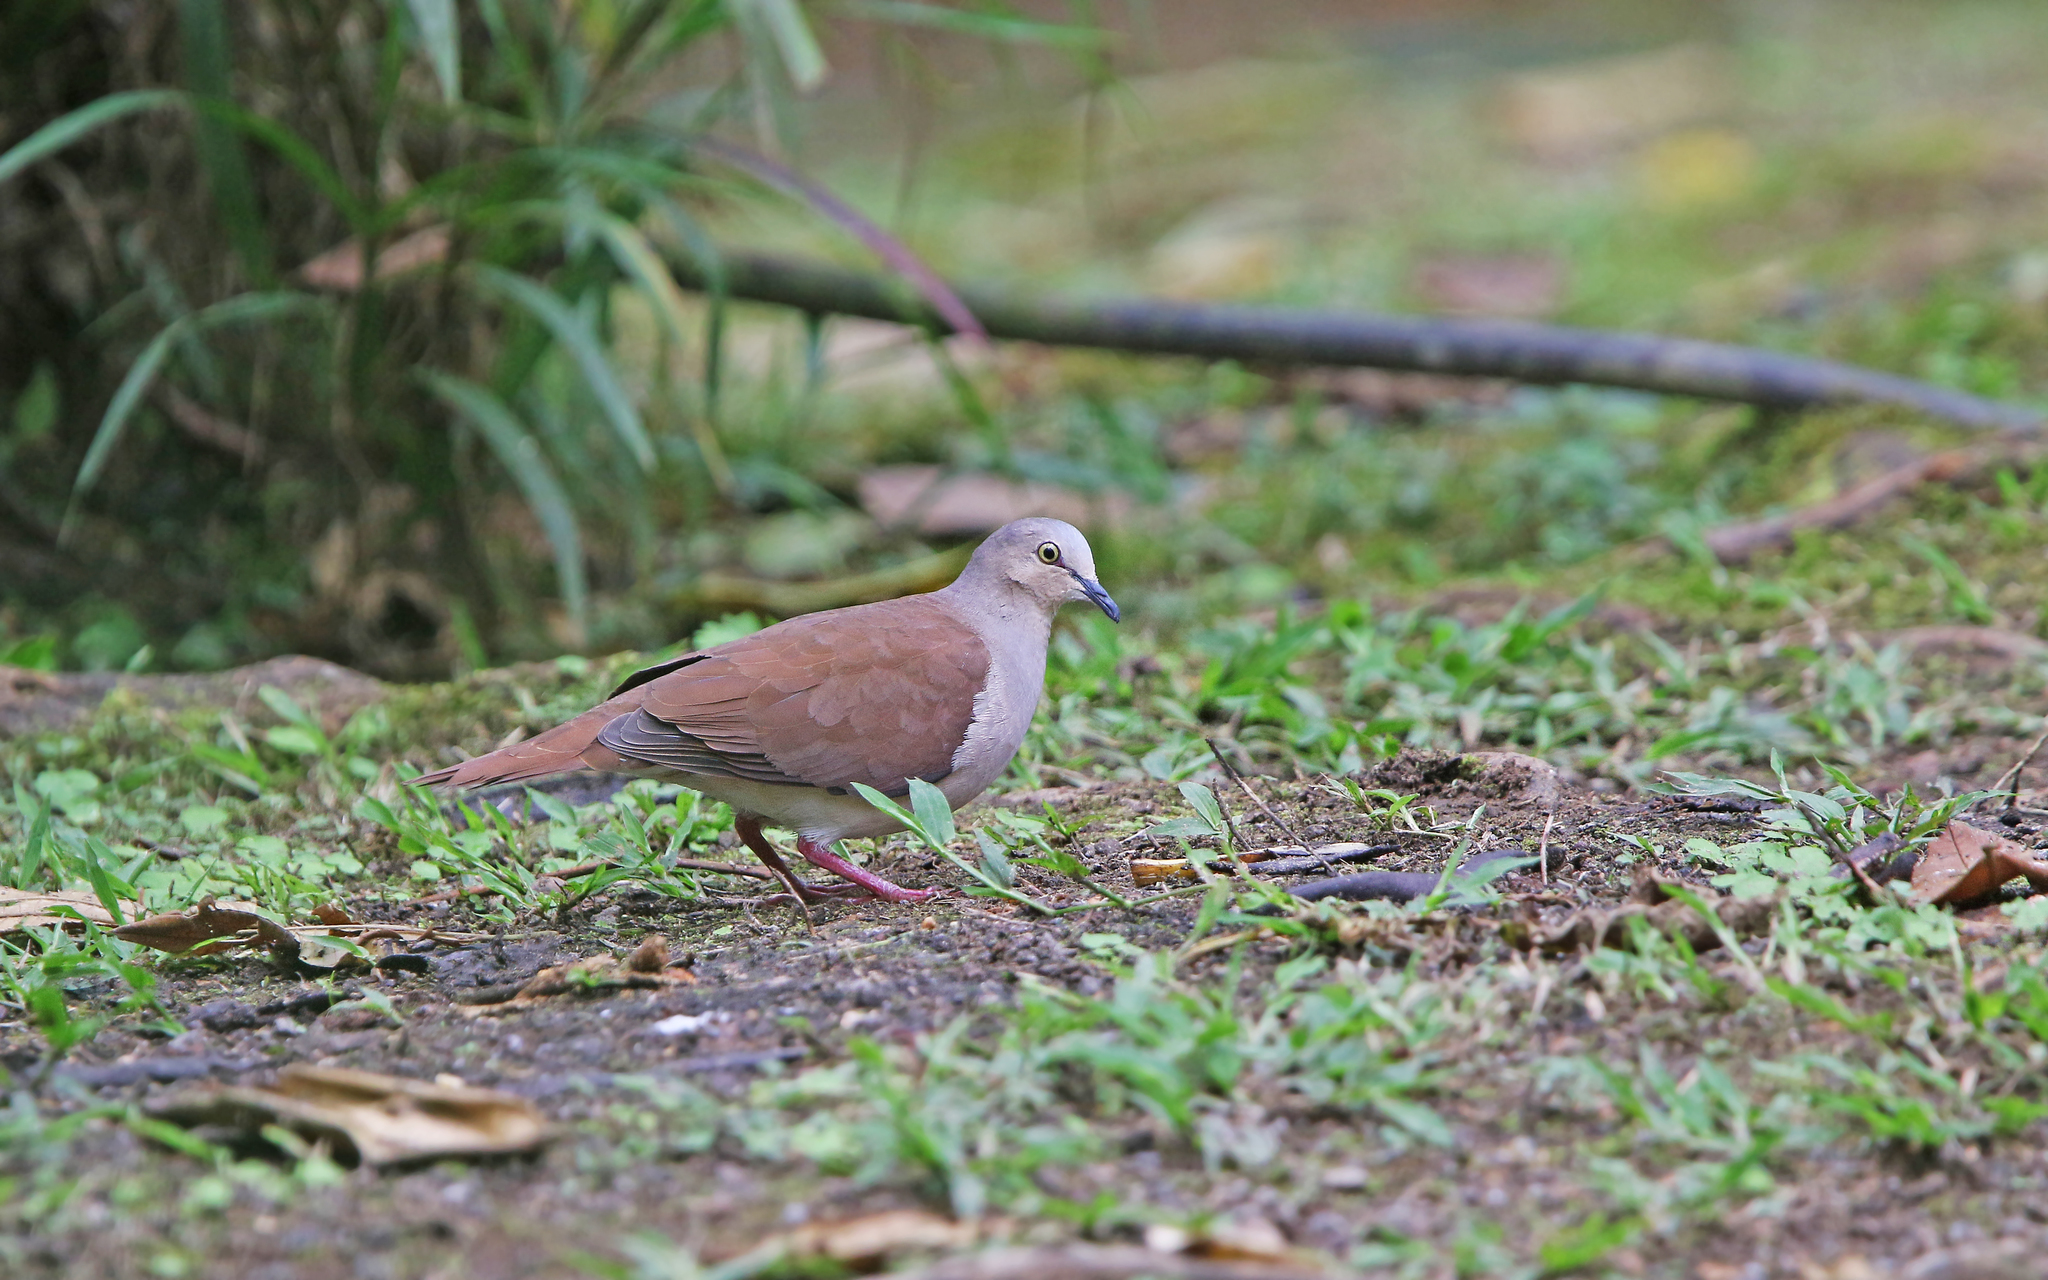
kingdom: Animalia
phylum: Chordata
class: Aves
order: Columbiformes
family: Columbidae
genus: Leptotila
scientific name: Leptotila pallida
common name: Pallid dove
